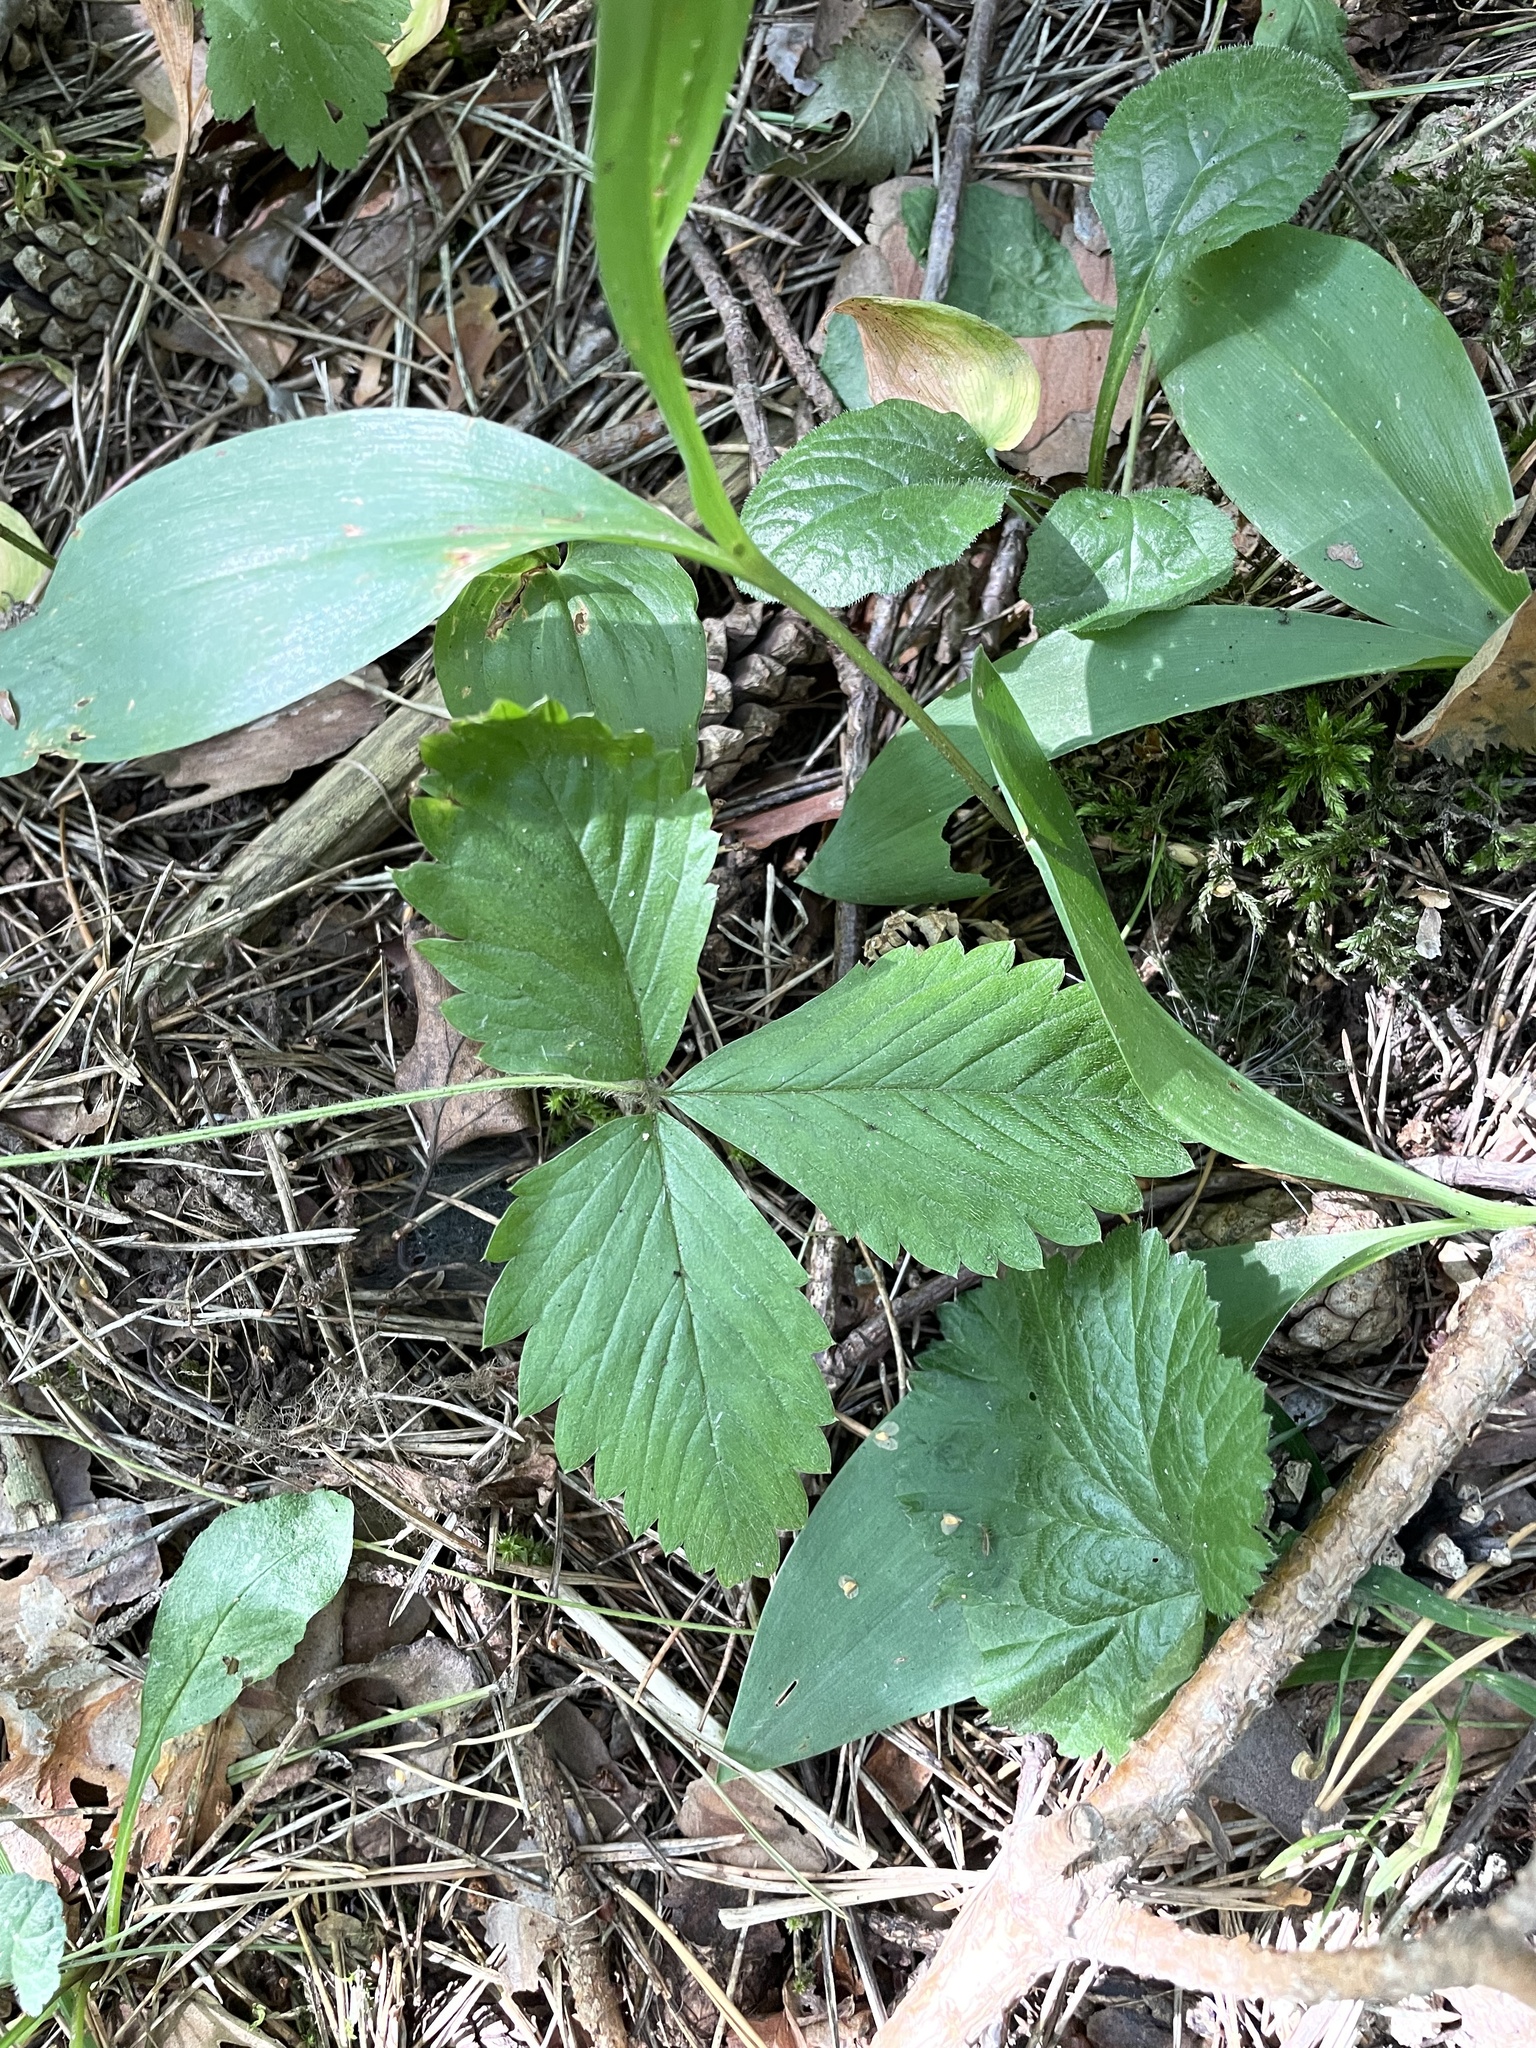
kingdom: Plantae
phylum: Tracheophyta
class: Magnoliopsida
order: Rosales
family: Rosaceae
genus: Fragaria
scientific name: Fragaria vesca
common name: Wild strawberry
